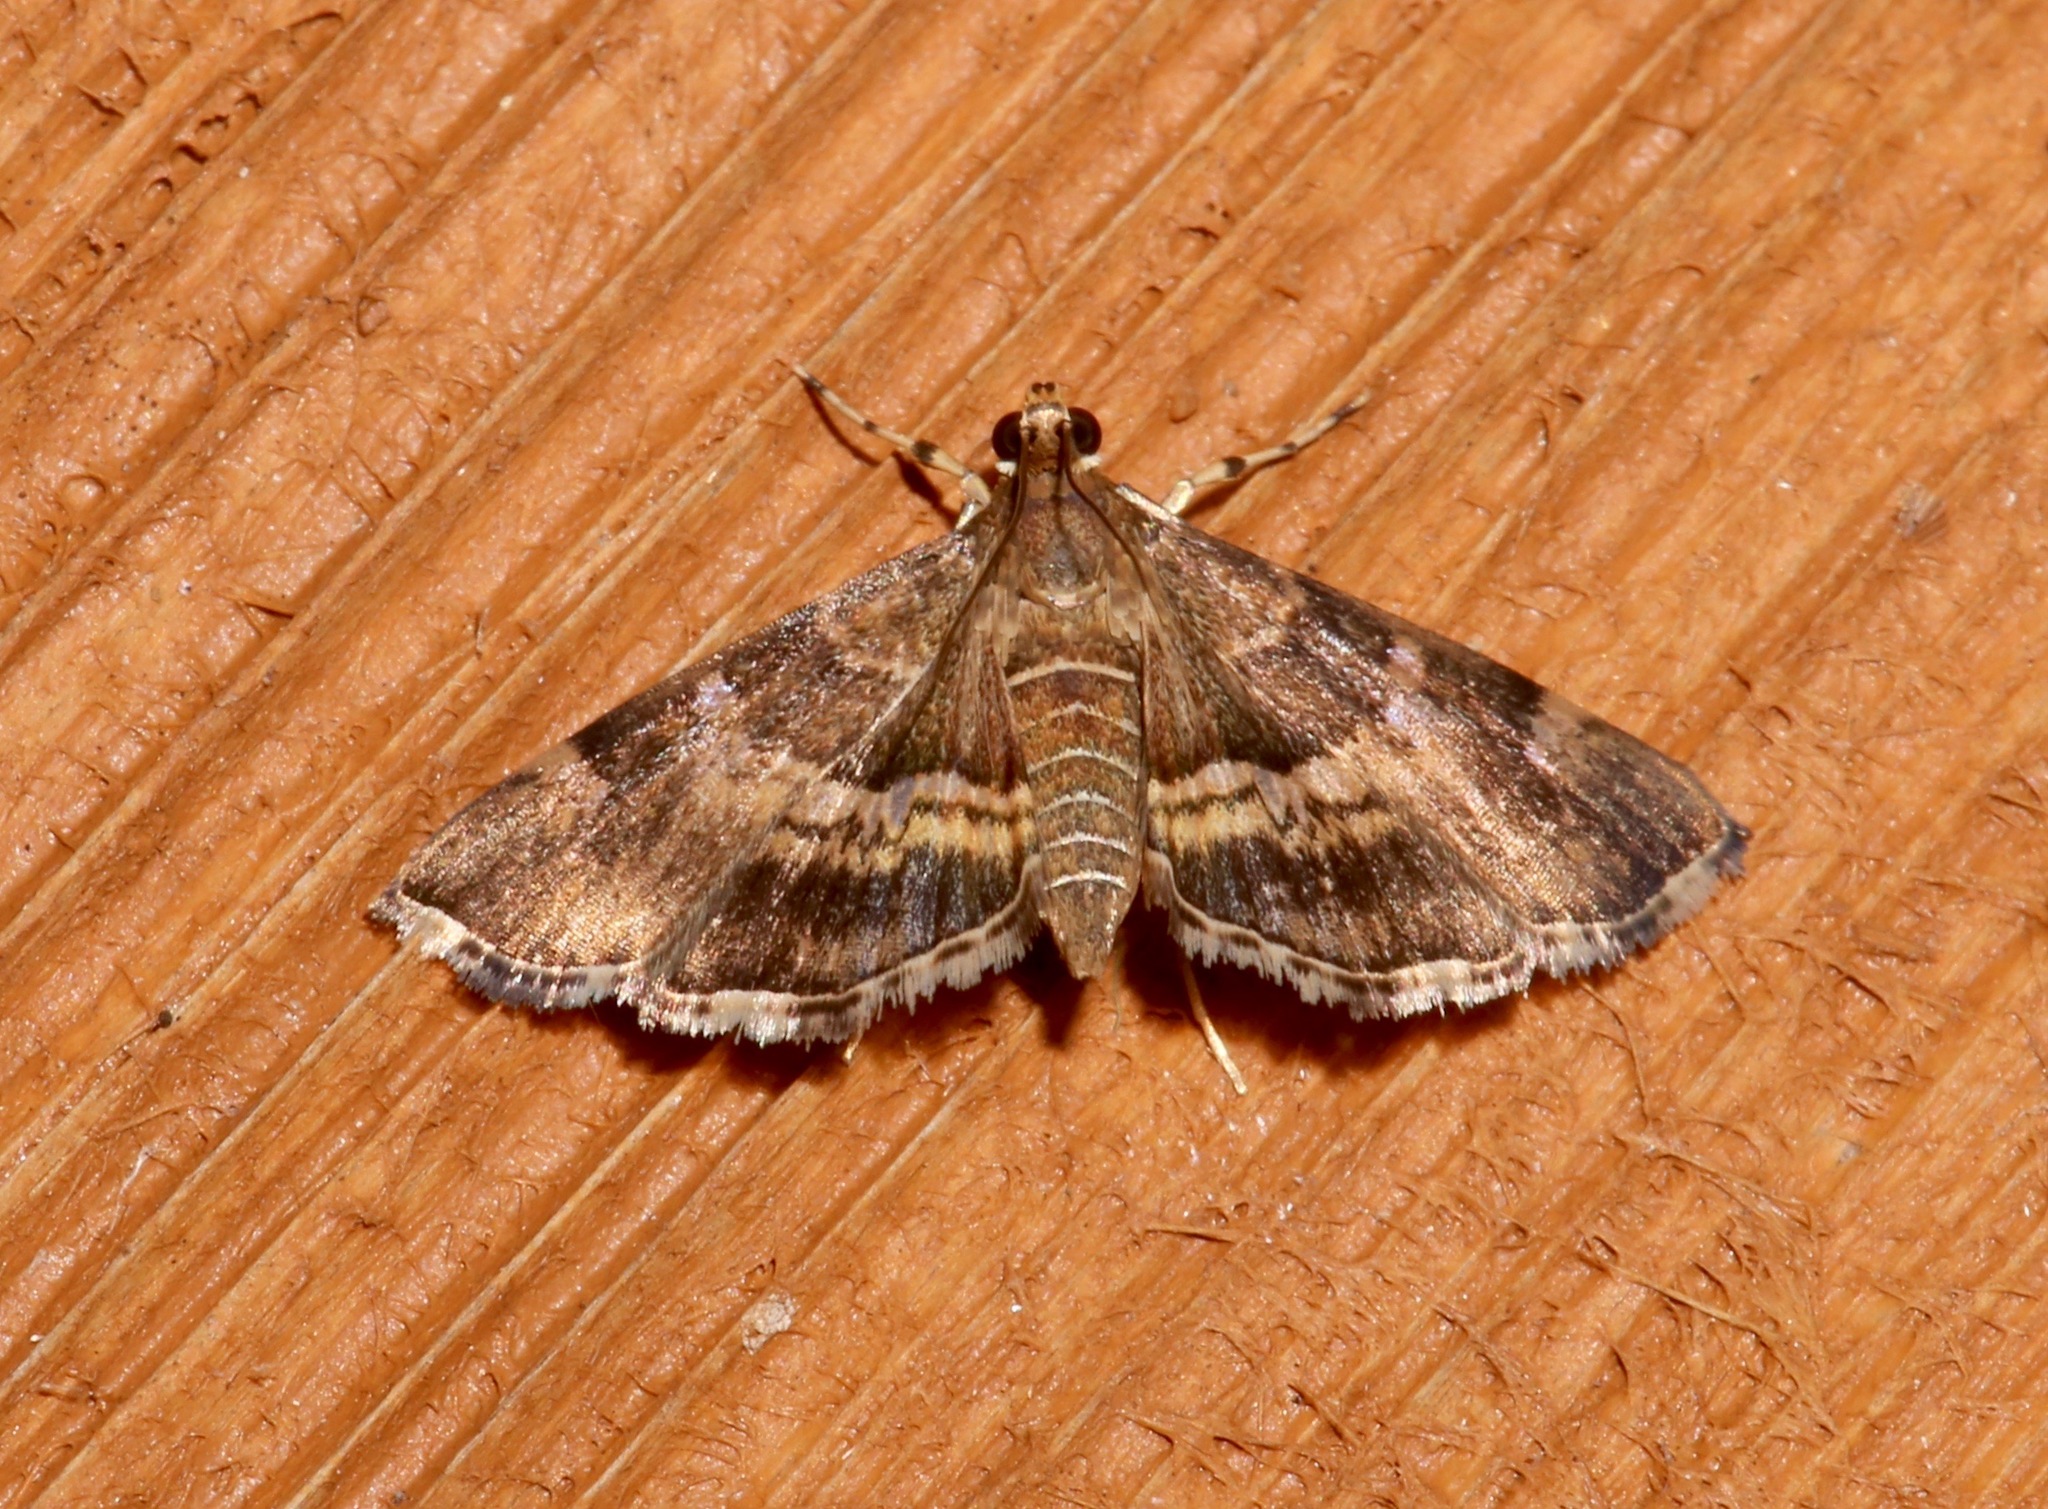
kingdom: Animalia
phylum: Arthropoda
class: Insecta
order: Lepidoptera
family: Crambidae
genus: Hymenia
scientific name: Hymenia perspectalis
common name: Spotted beet webworm
